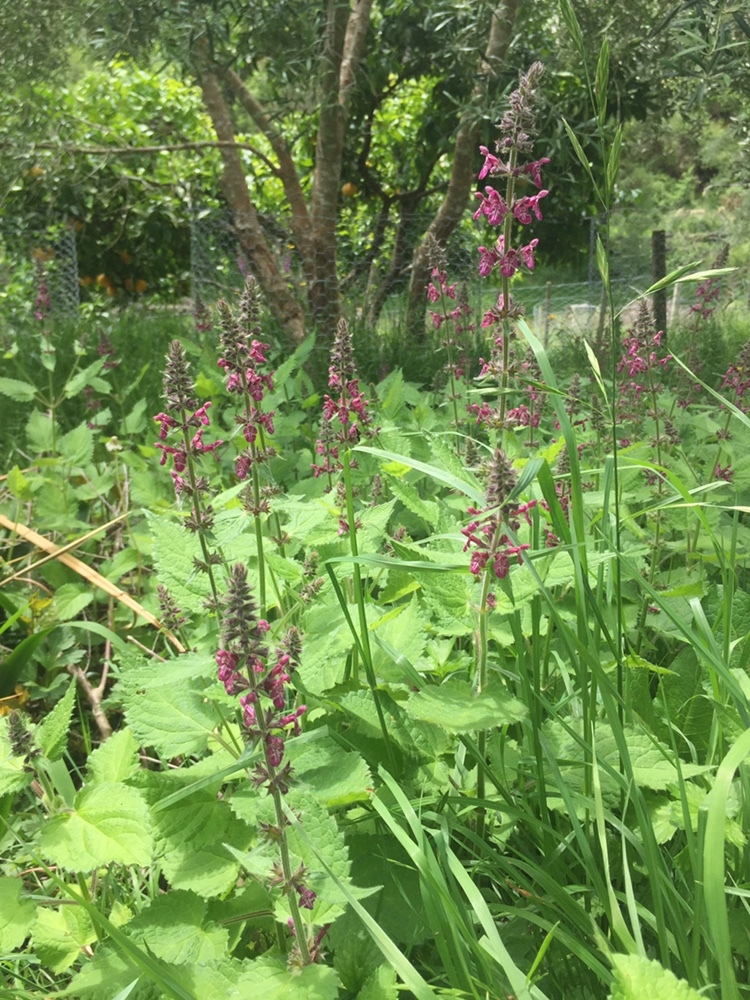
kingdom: Plantae
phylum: Tracheophyta
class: Magnoliopsida
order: Lamiales
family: Lamiaceae
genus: Stachys
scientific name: Stachys sylvatica
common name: Hedge woundwort
